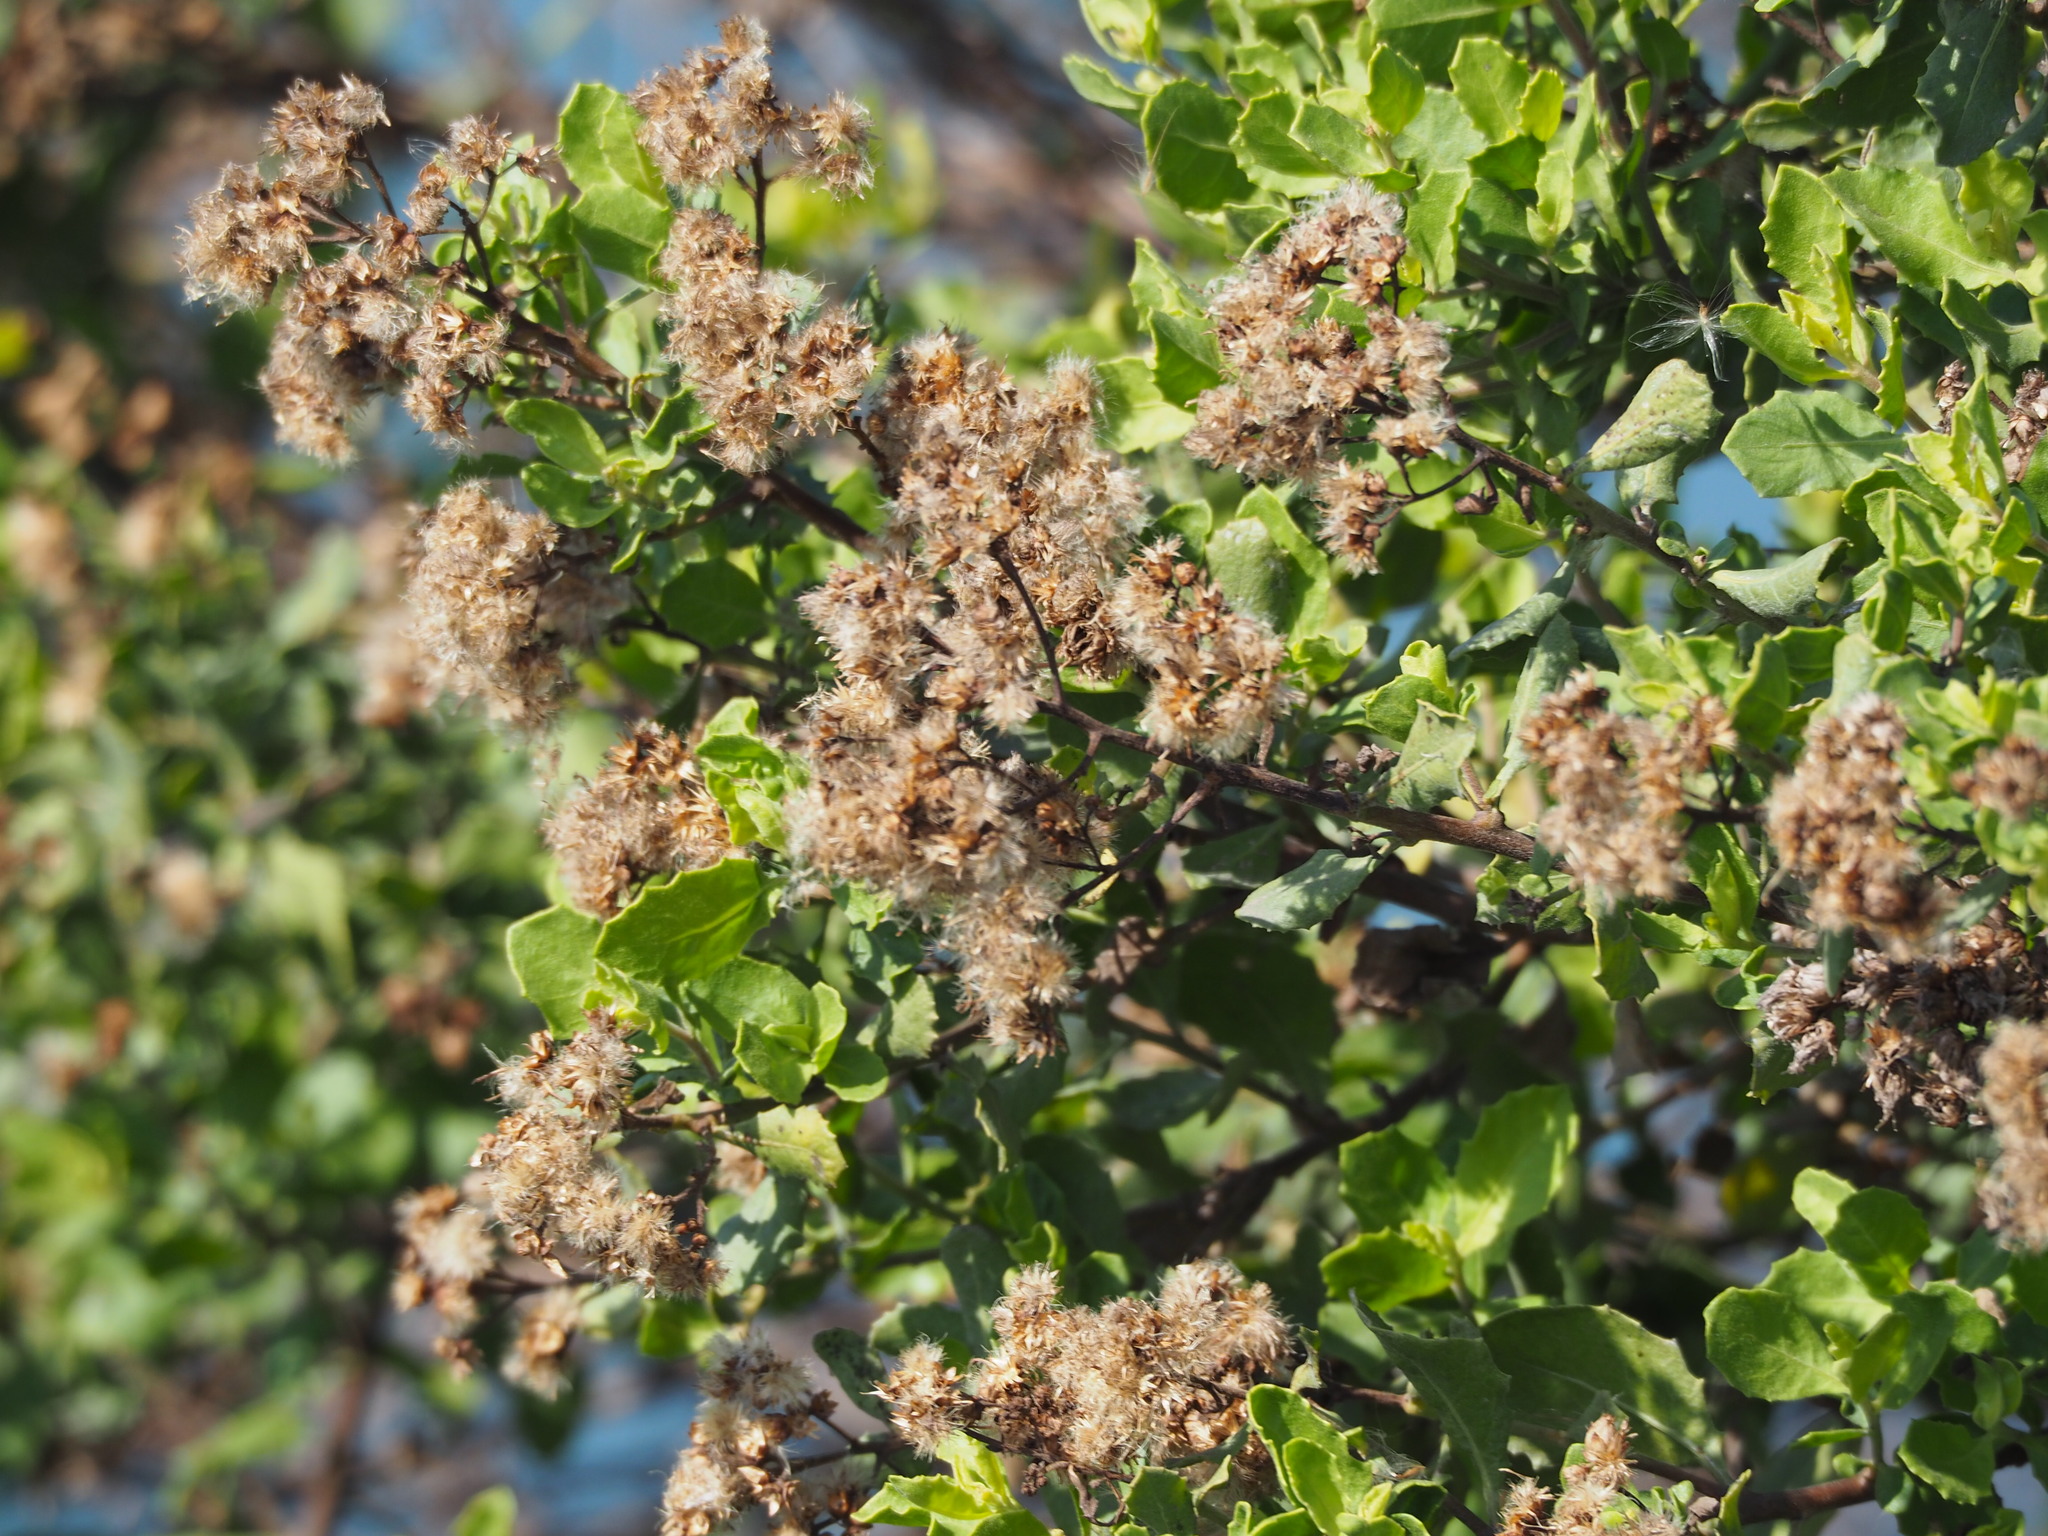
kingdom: Plantae
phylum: Tracheophyta
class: Magnoliopsida
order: Asterales
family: Asteraceae
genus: Pluchea
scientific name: Pluchea indica
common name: Indian fleabane
